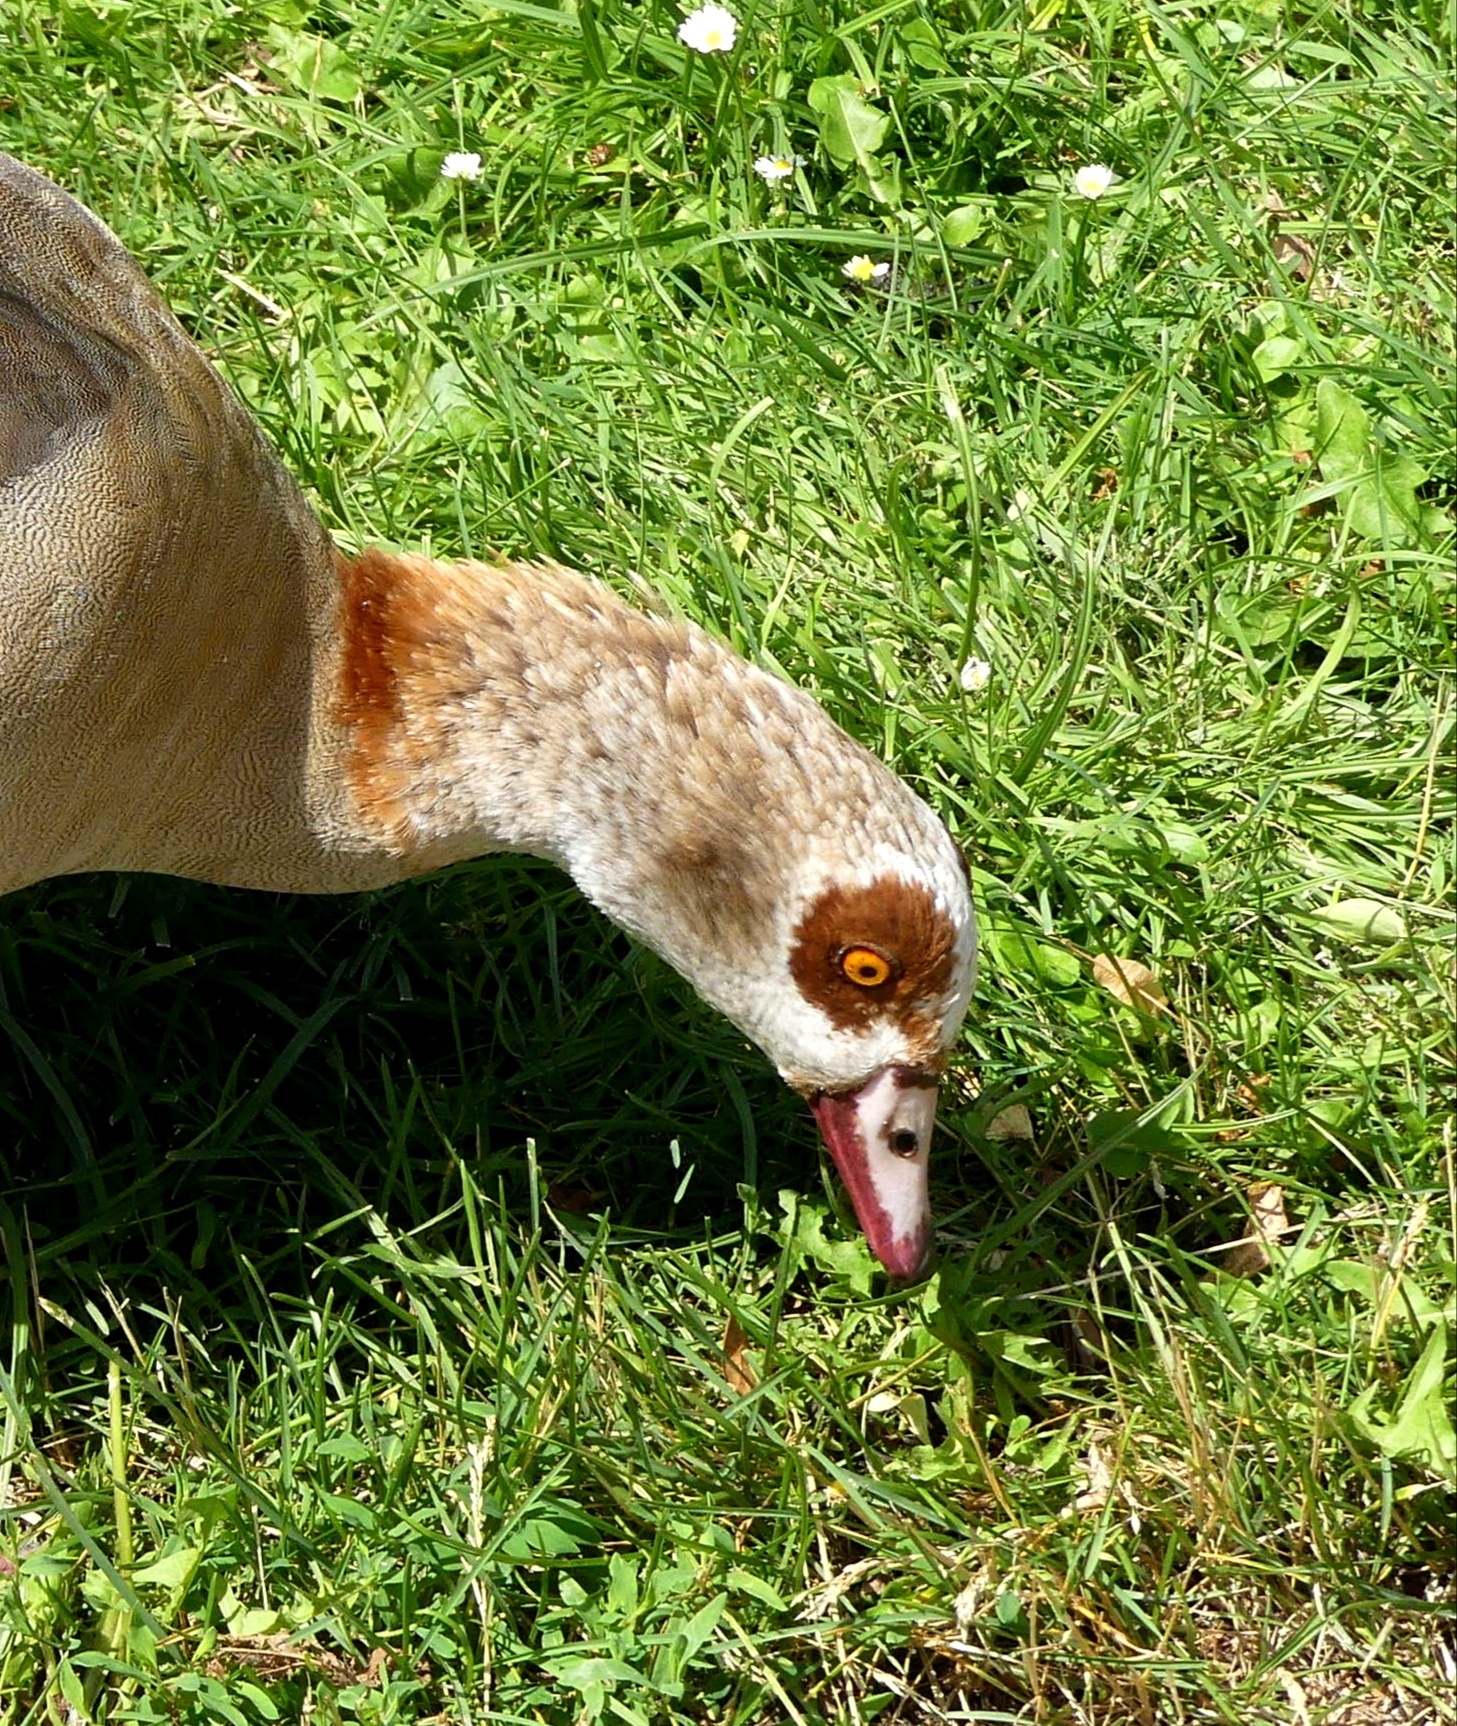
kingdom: Animalia
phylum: Chordata
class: Aves
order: Anseriformes
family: Anatidae
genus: Alopochen
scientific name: Alopochen aegyptiaca
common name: Egyptian goose
